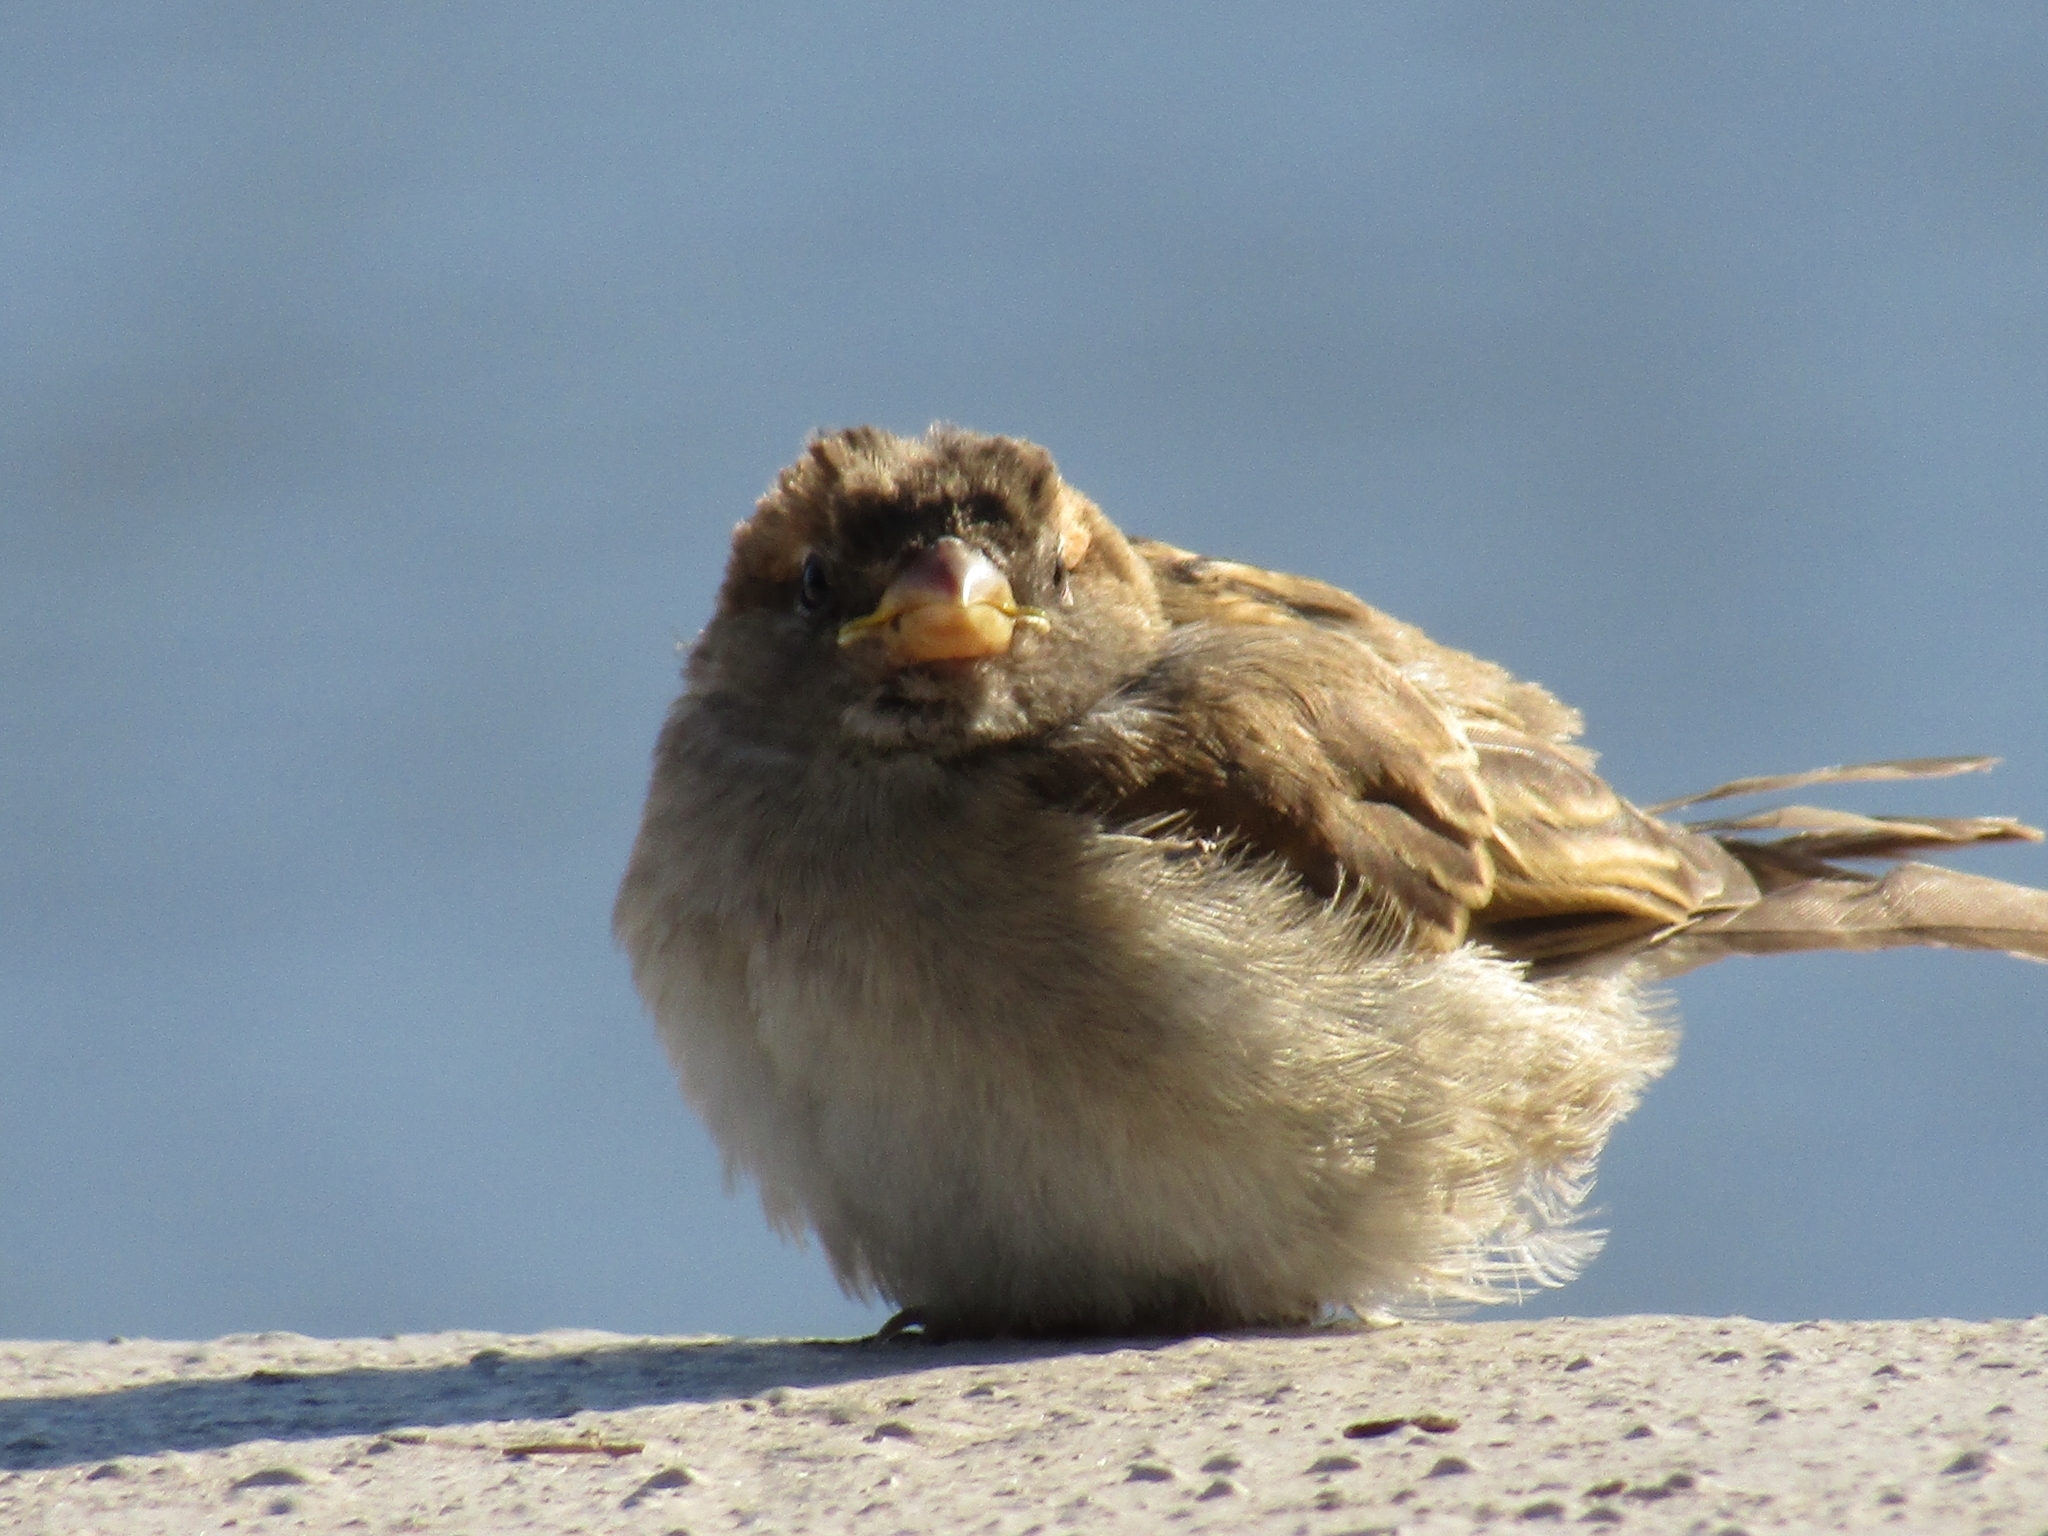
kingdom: Animalia
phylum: Chordata
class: Aves
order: Passeriformes
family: Passeridae
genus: Passer
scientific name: Passer domesticus
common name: House sparrow
